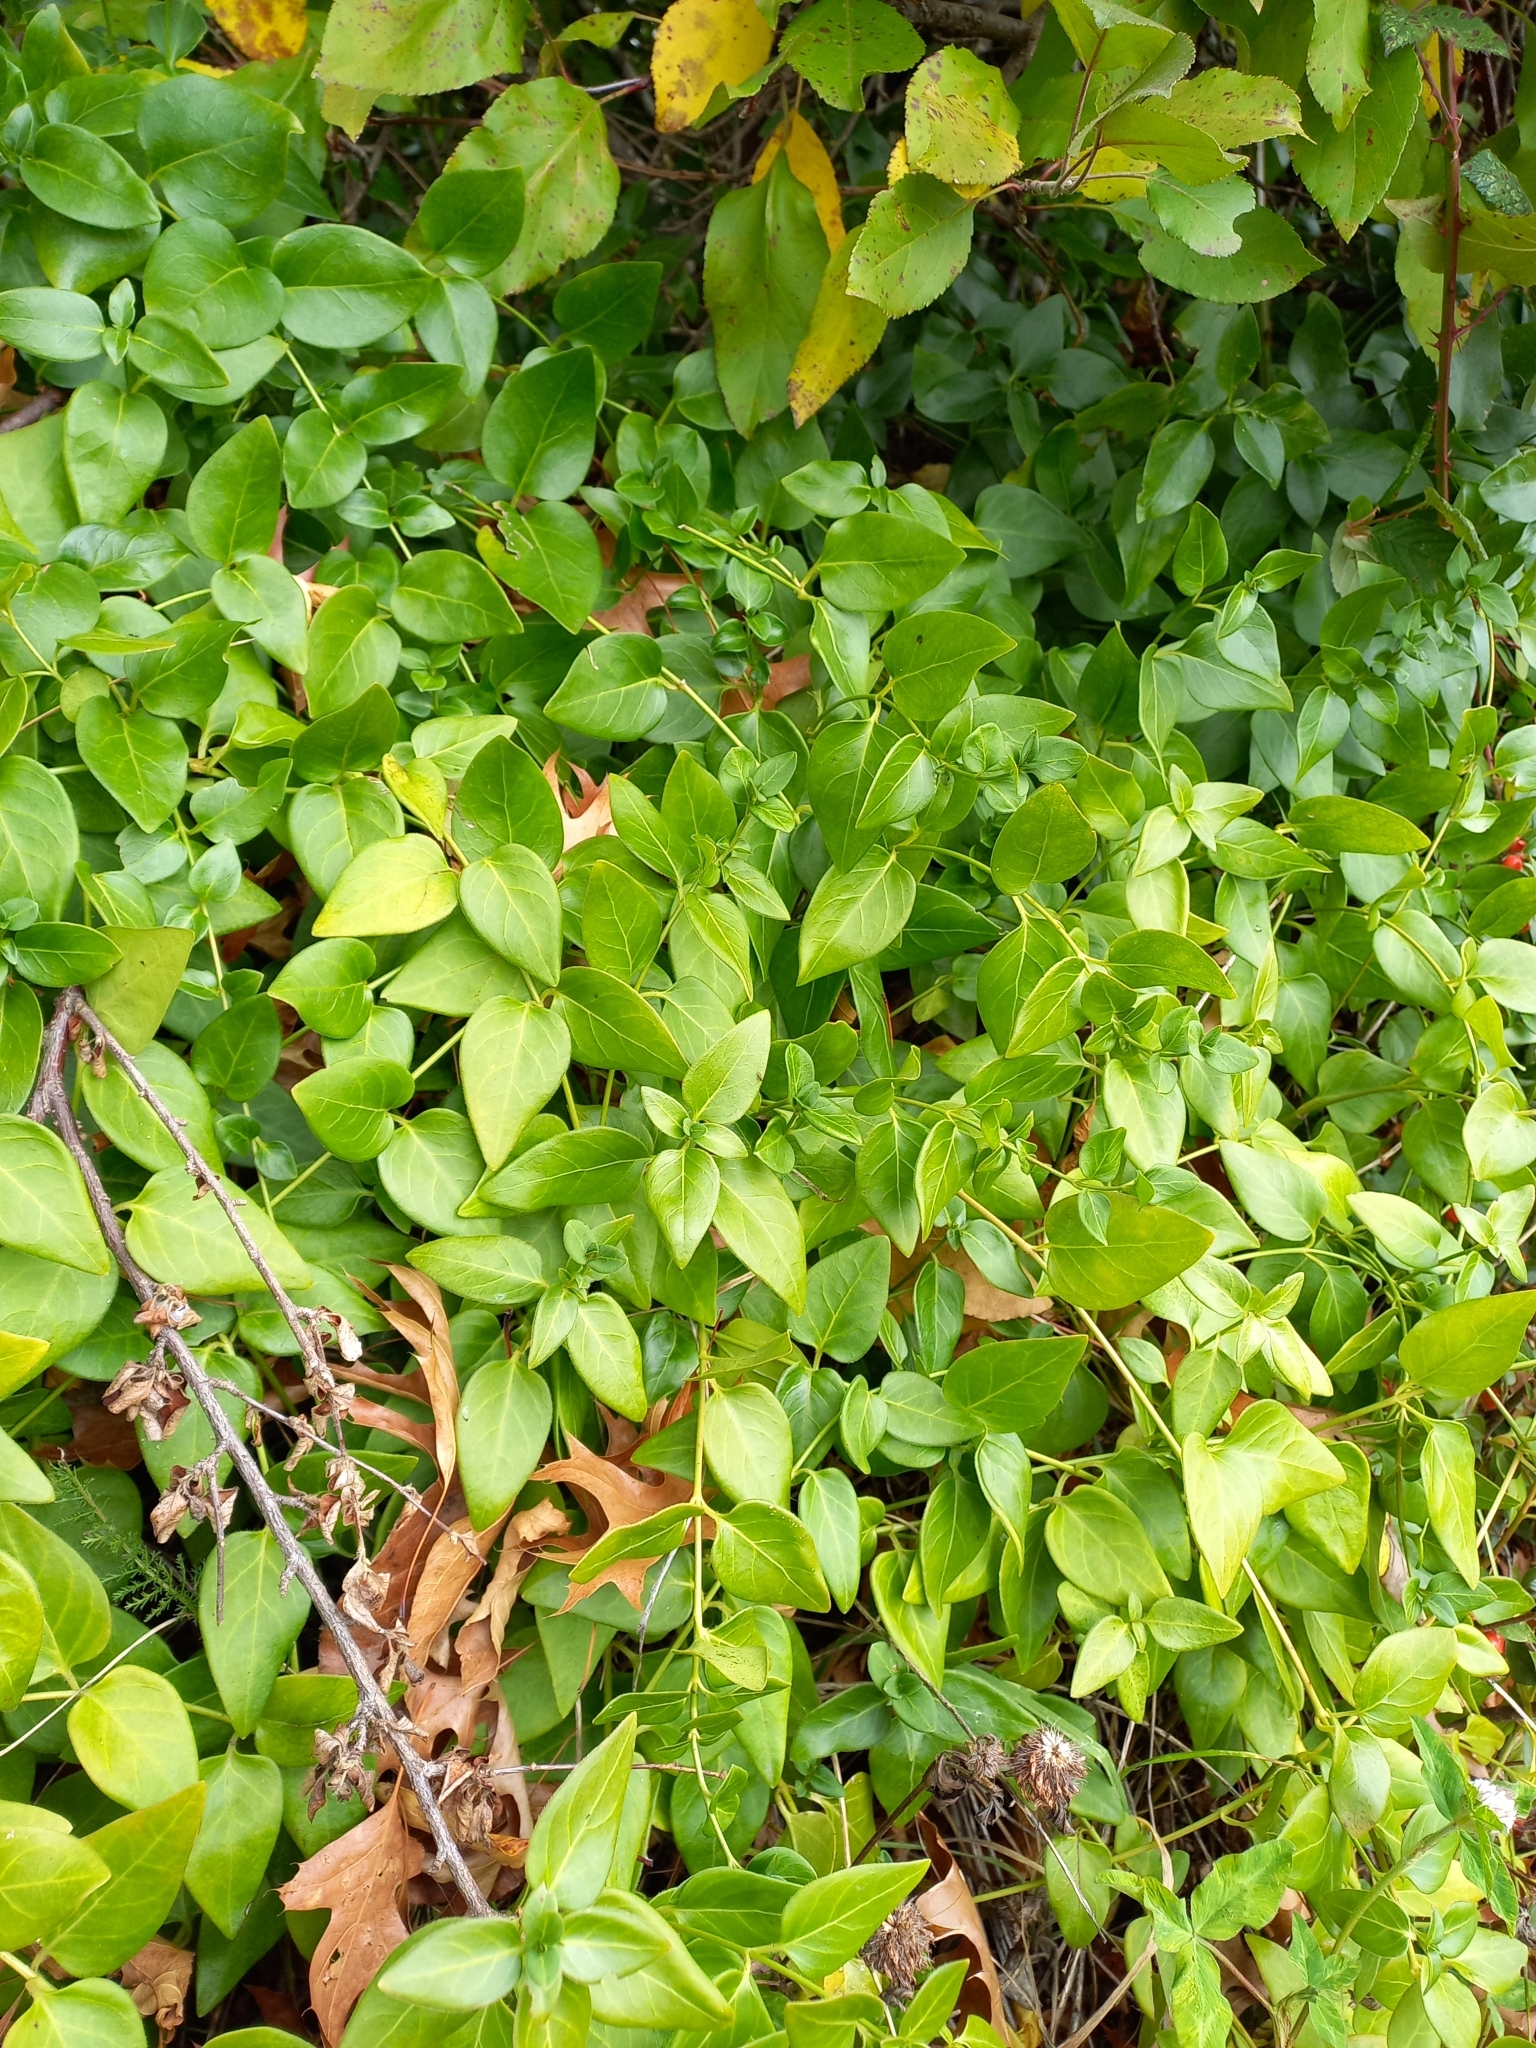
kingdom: Plantae
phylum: Tracheophyta
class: Magnoliopsida
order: Gentianales
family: Apocynaceae
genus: Vinca
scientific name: Vinca major
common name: Greater periwinkle
